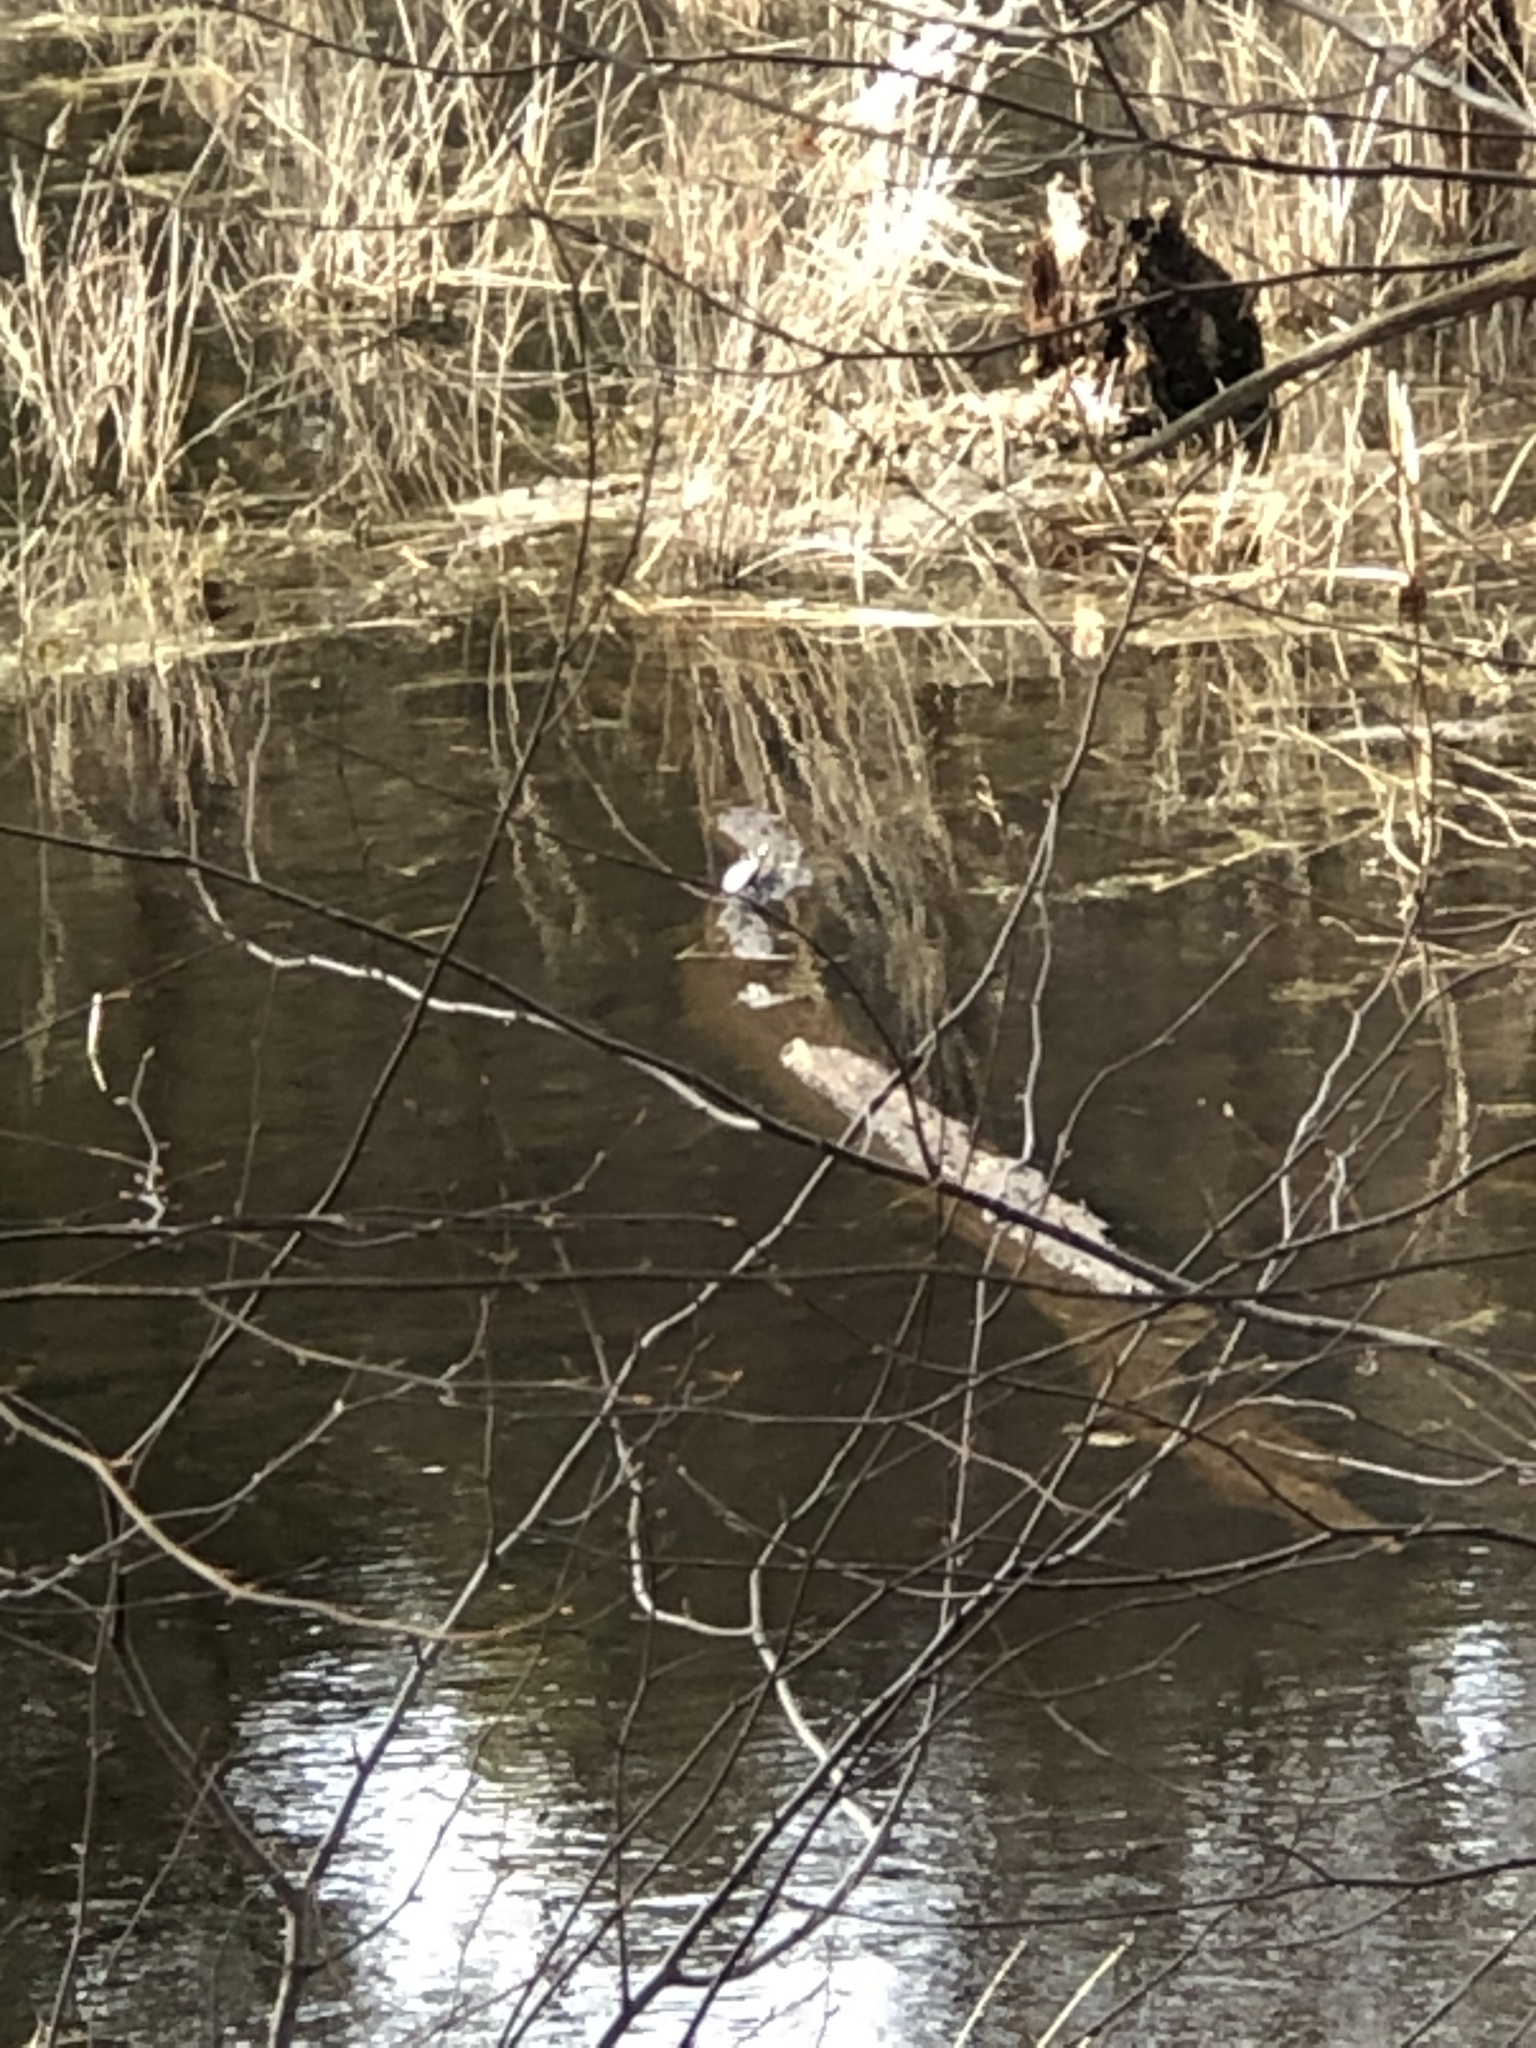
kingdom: Animalia
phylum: Chordata
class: Testudines
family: Emydidae
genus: Chrysemys
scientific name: Chrysemys picta
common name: Painted turtle
